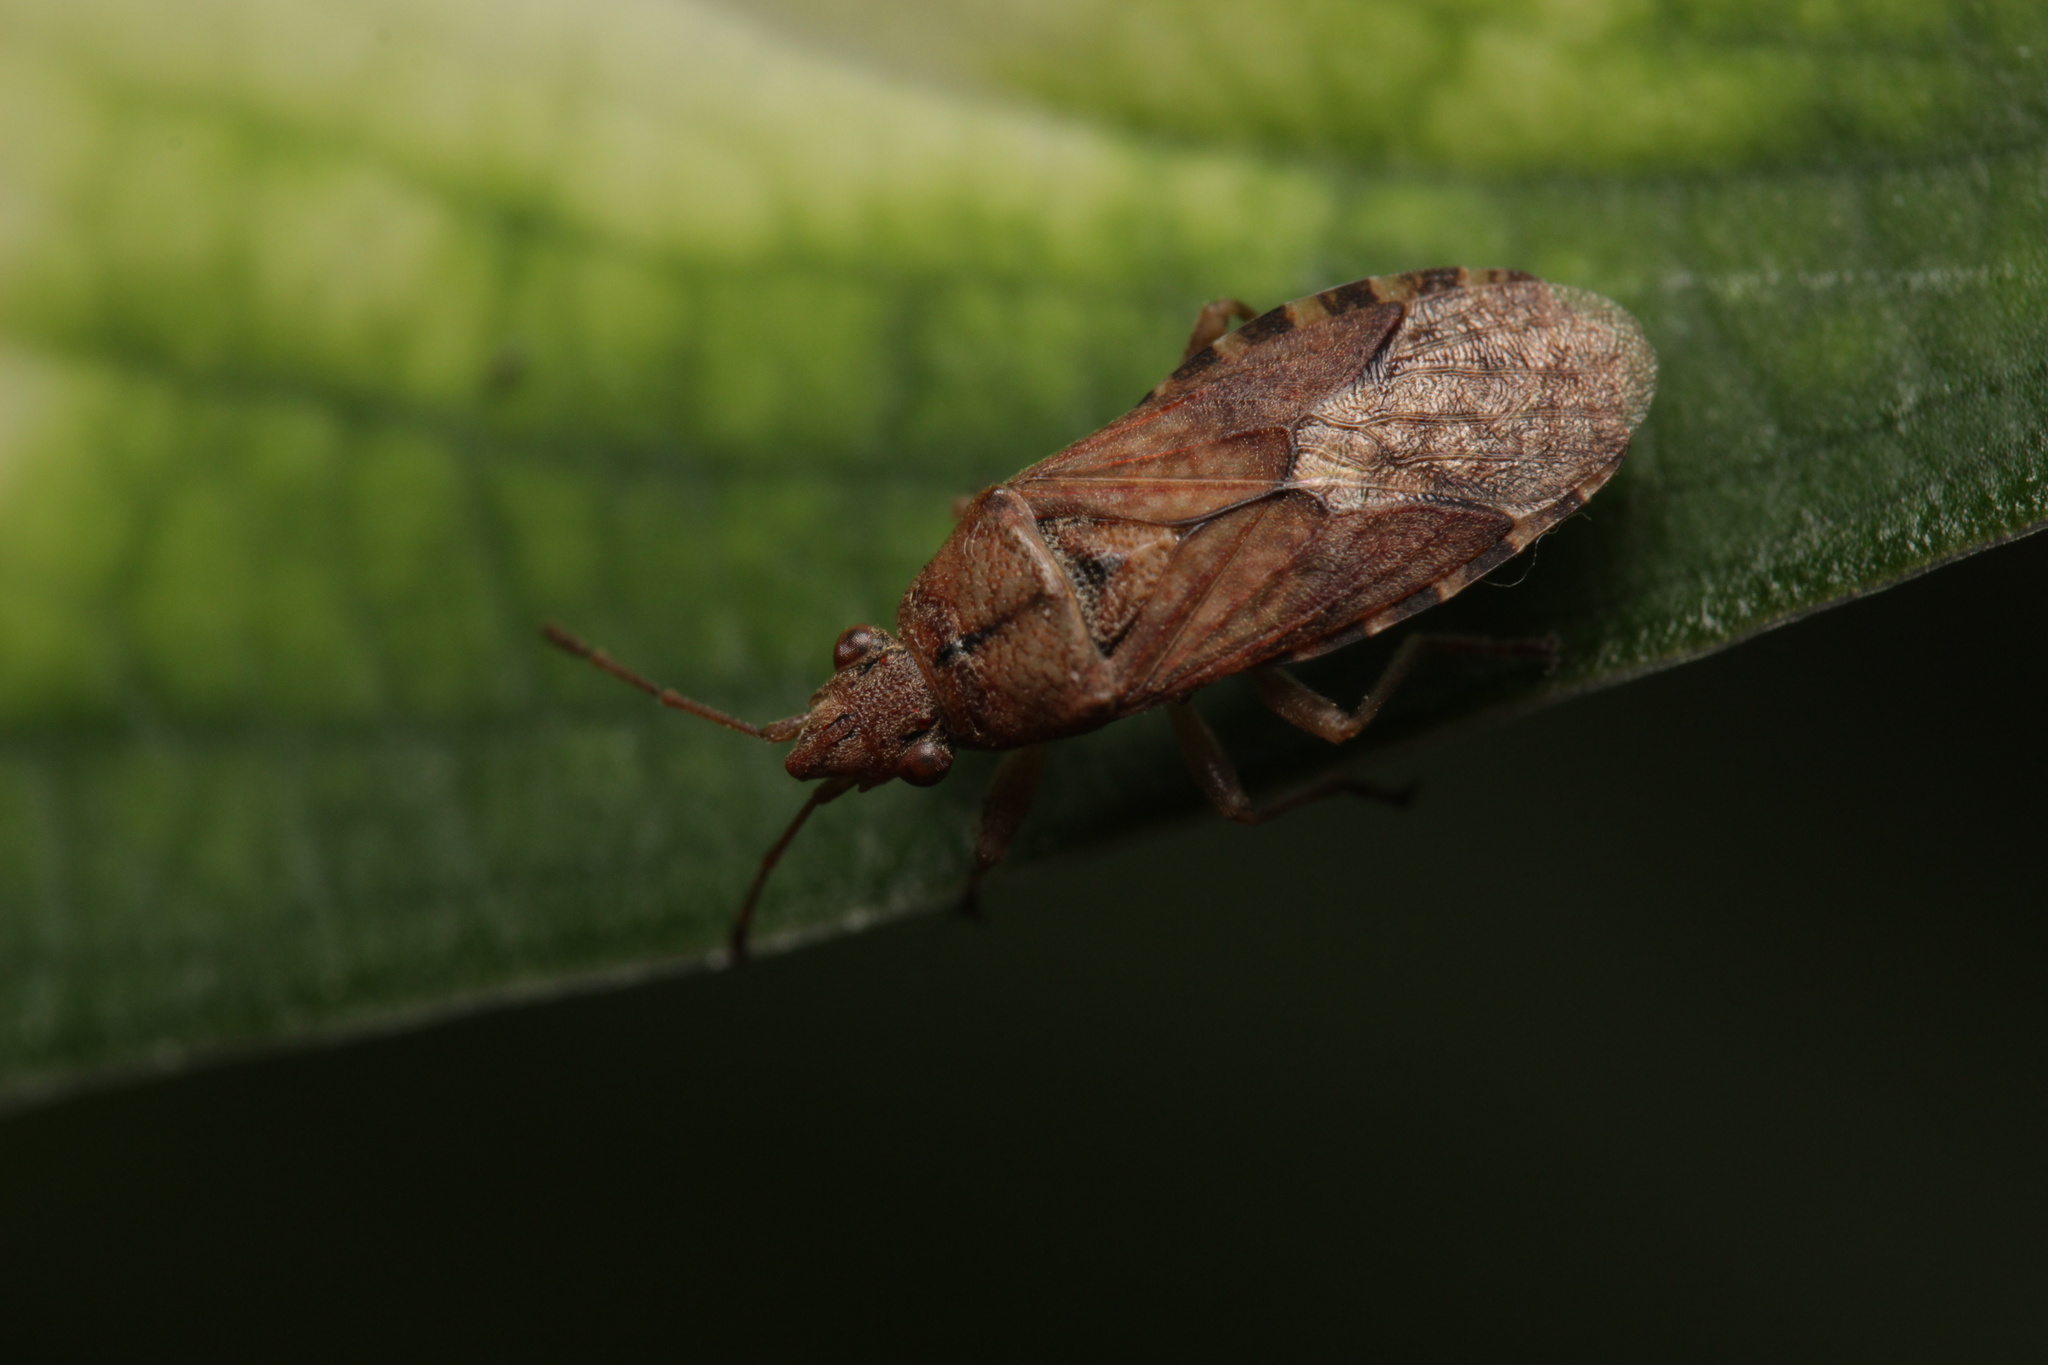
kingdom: Animalia
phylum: Arthropoda
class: Insecta
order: Hemiptera
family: Lygaeidae
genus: Orsillus
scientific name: Orsillus depressus
